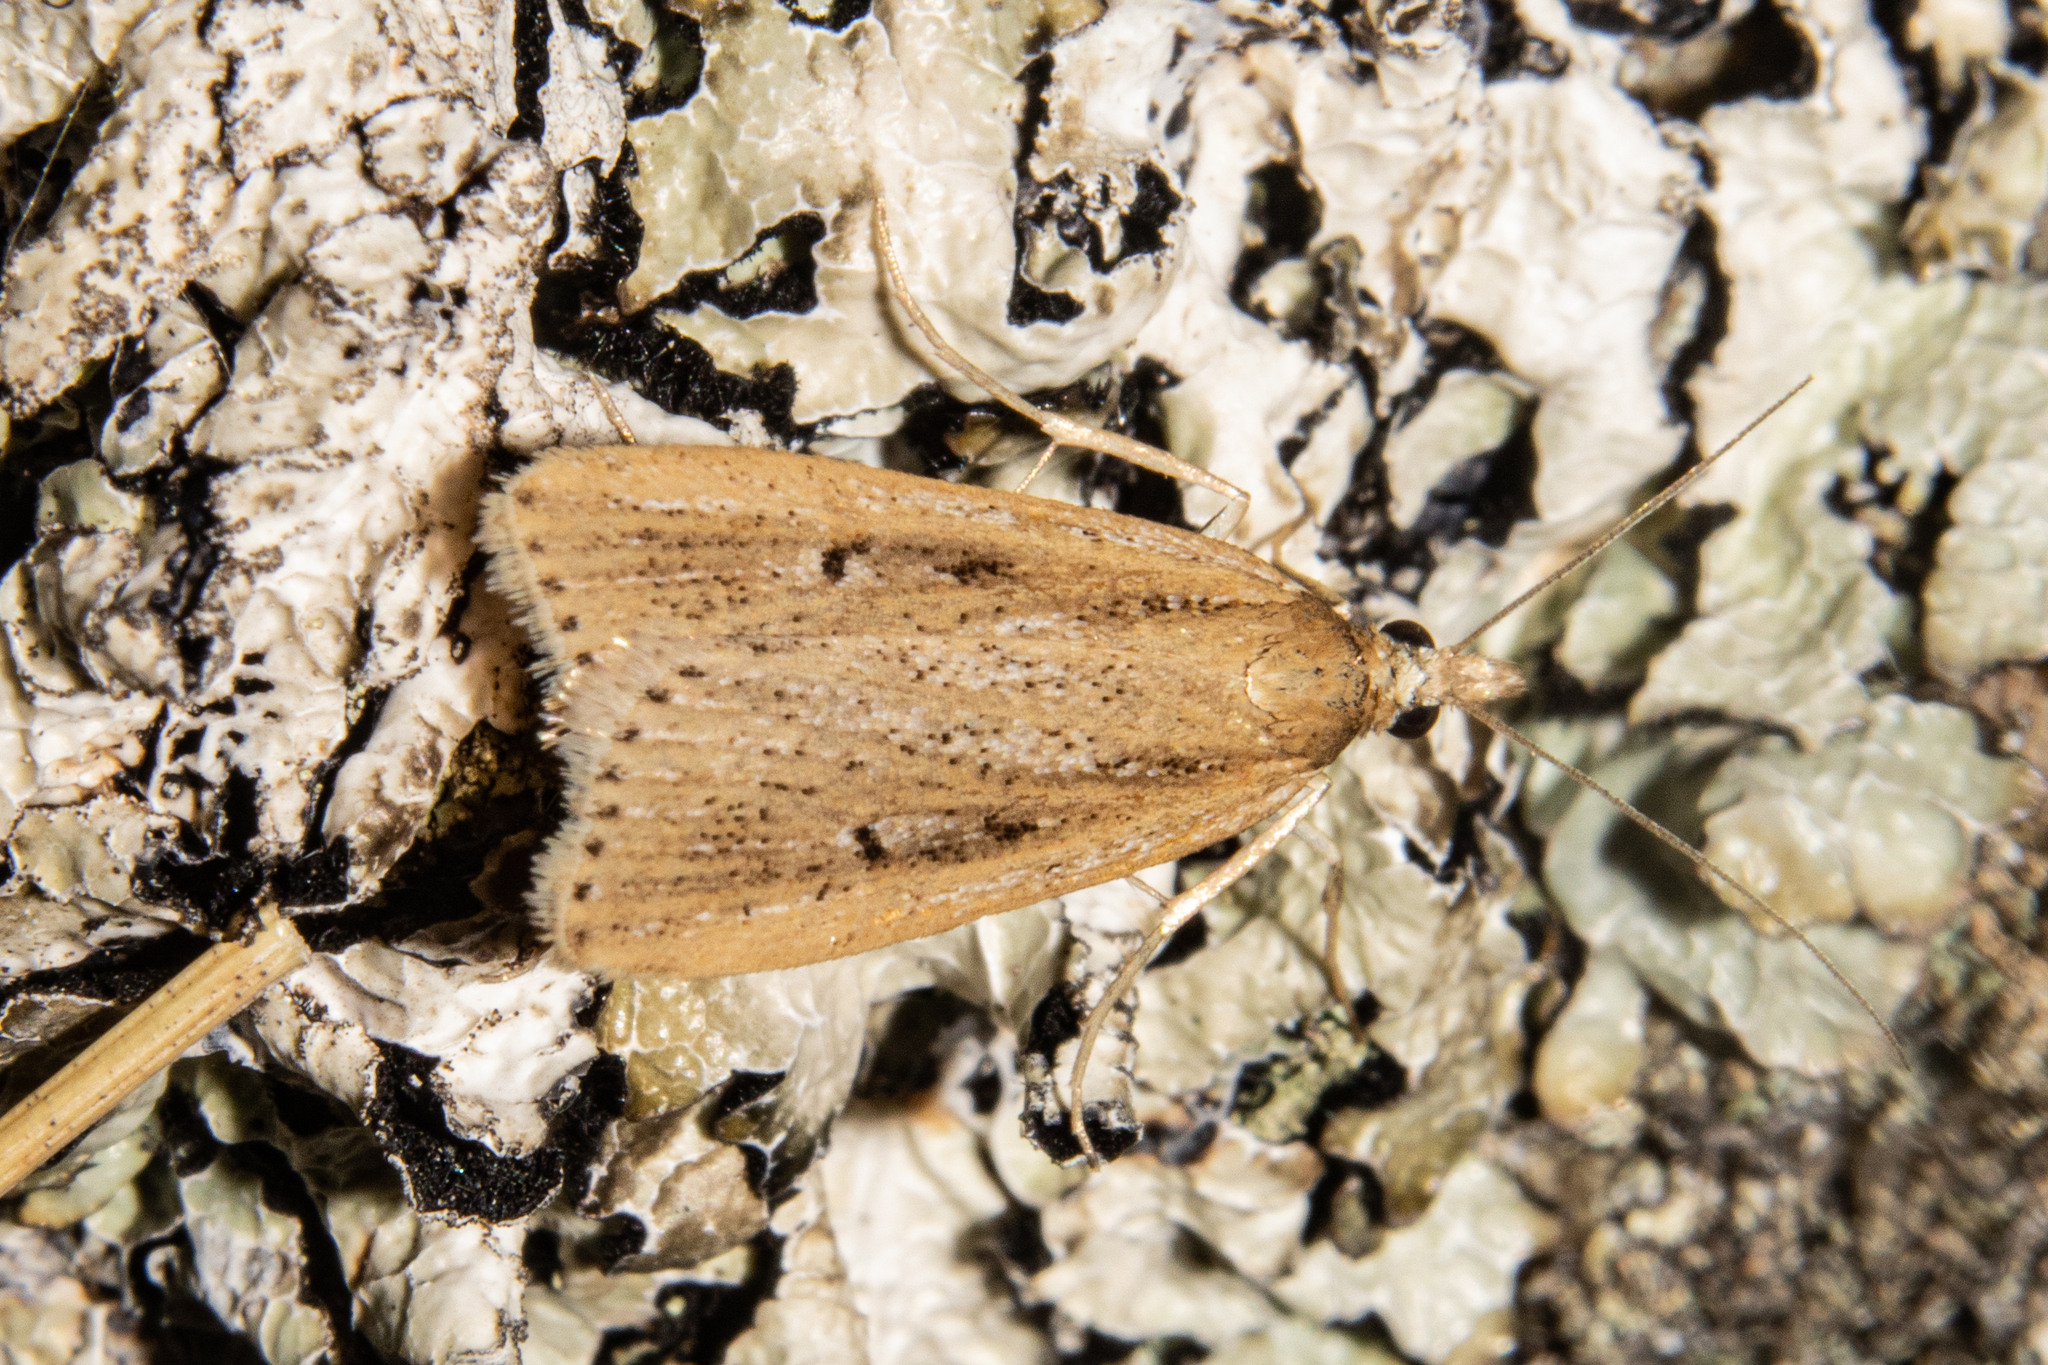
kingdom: Animalia
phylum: Arthropoda
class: Insecta
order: Lepidoptera
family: Crambidae
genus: Eudonia
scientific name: Eudonia sabulosella
